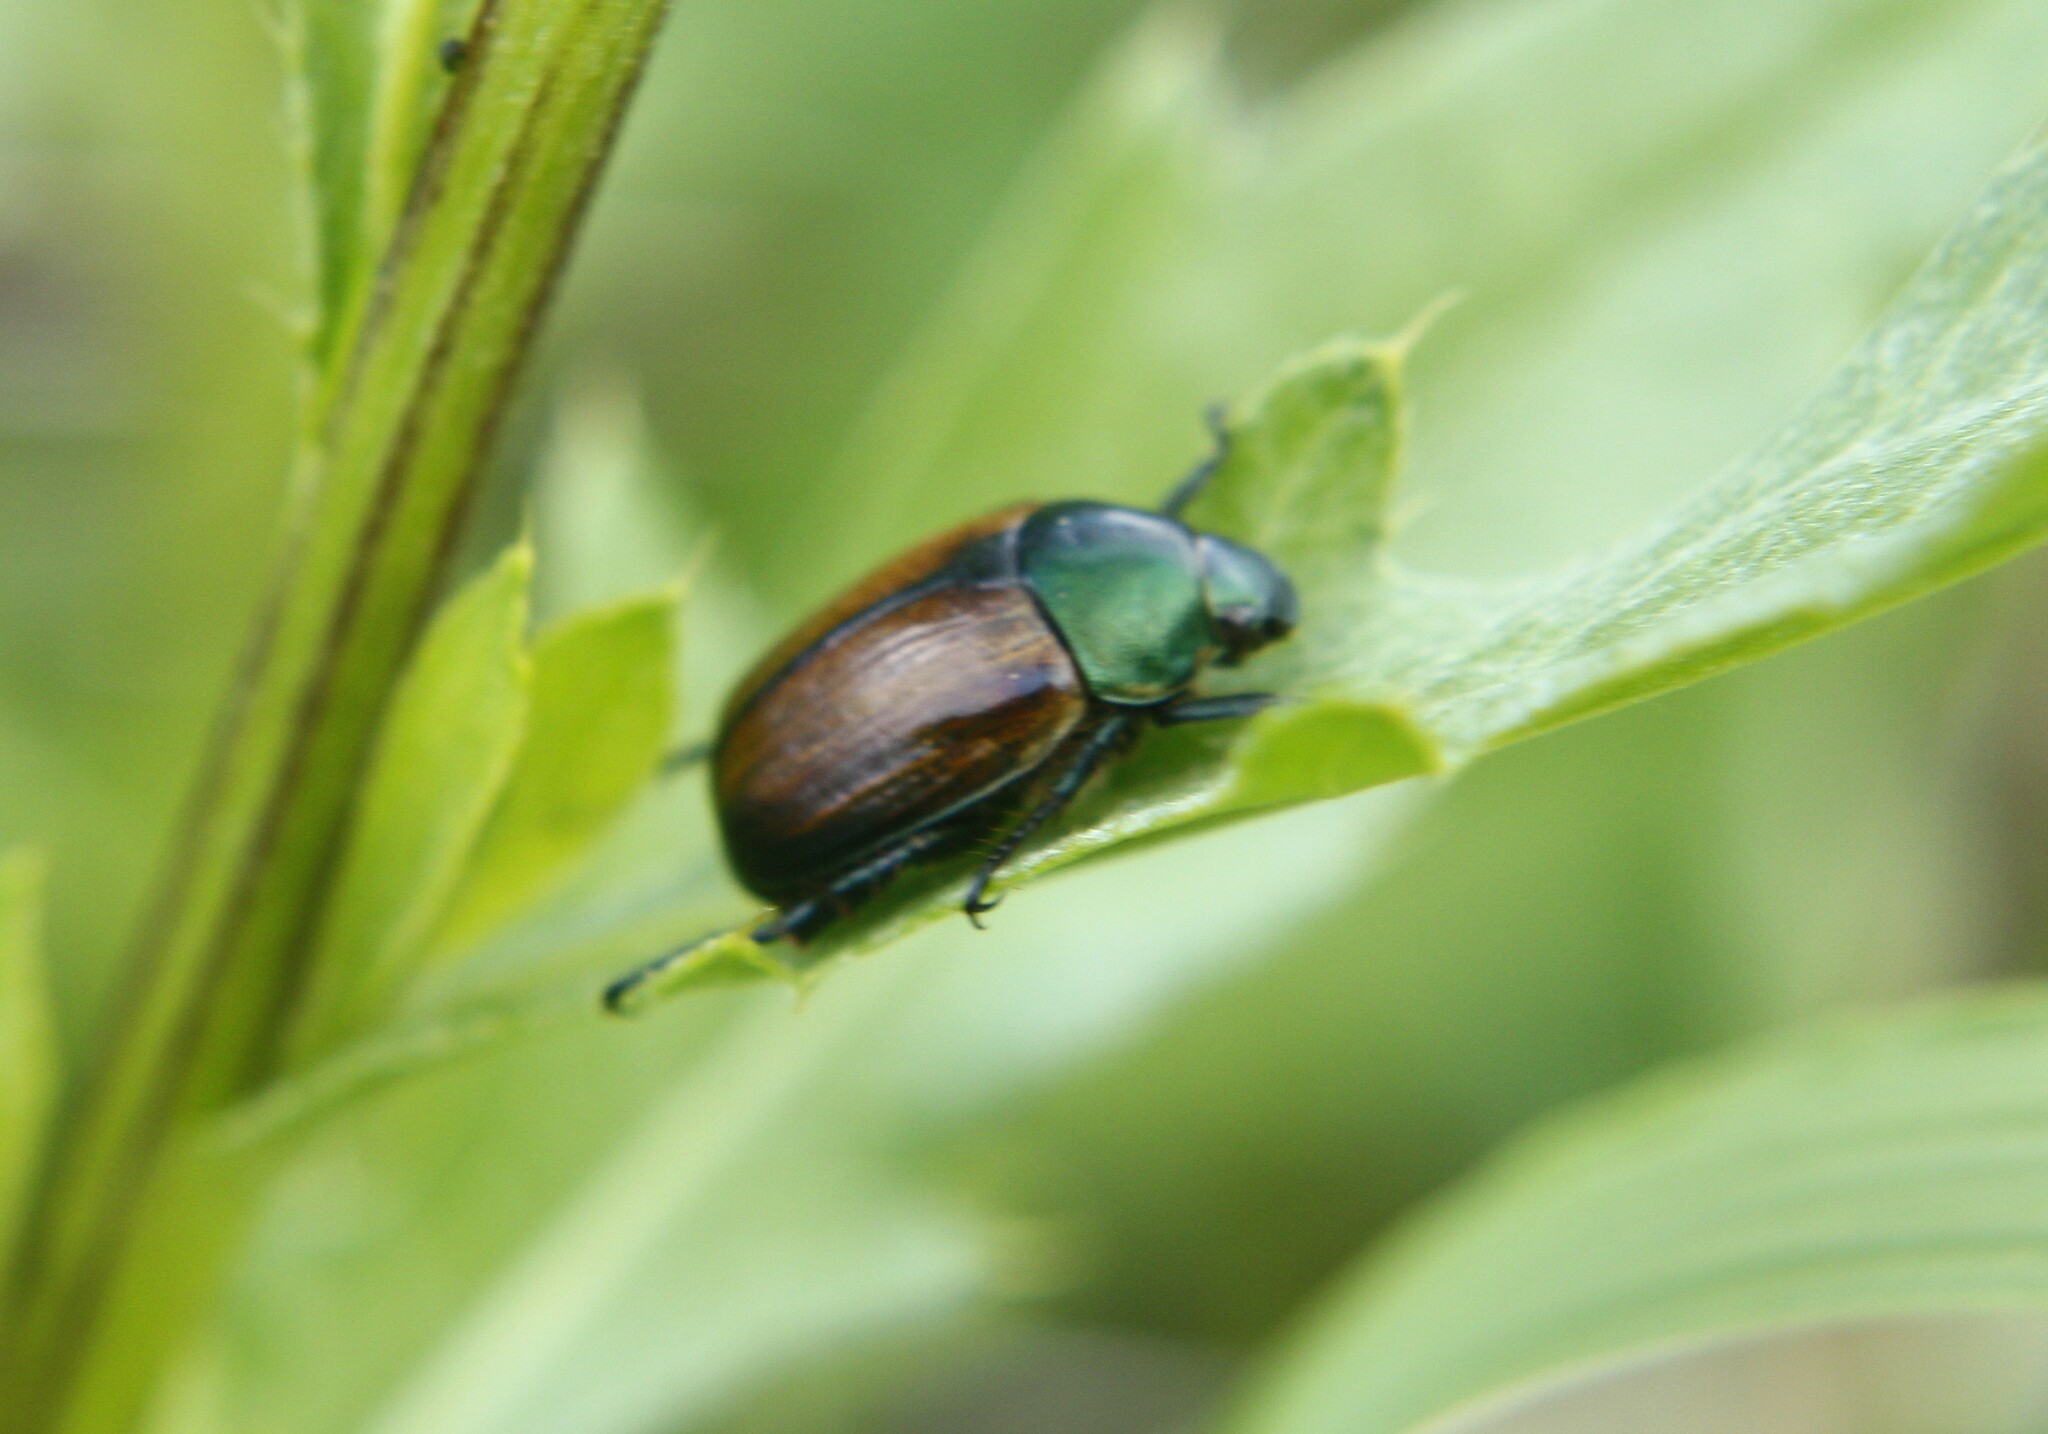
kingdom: Animalia
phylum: Arthropoda
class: Insecta
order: Coleoptera
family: Scarabaeidae
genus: Anomala
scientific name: Anomala dubia
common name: Dune chafer
